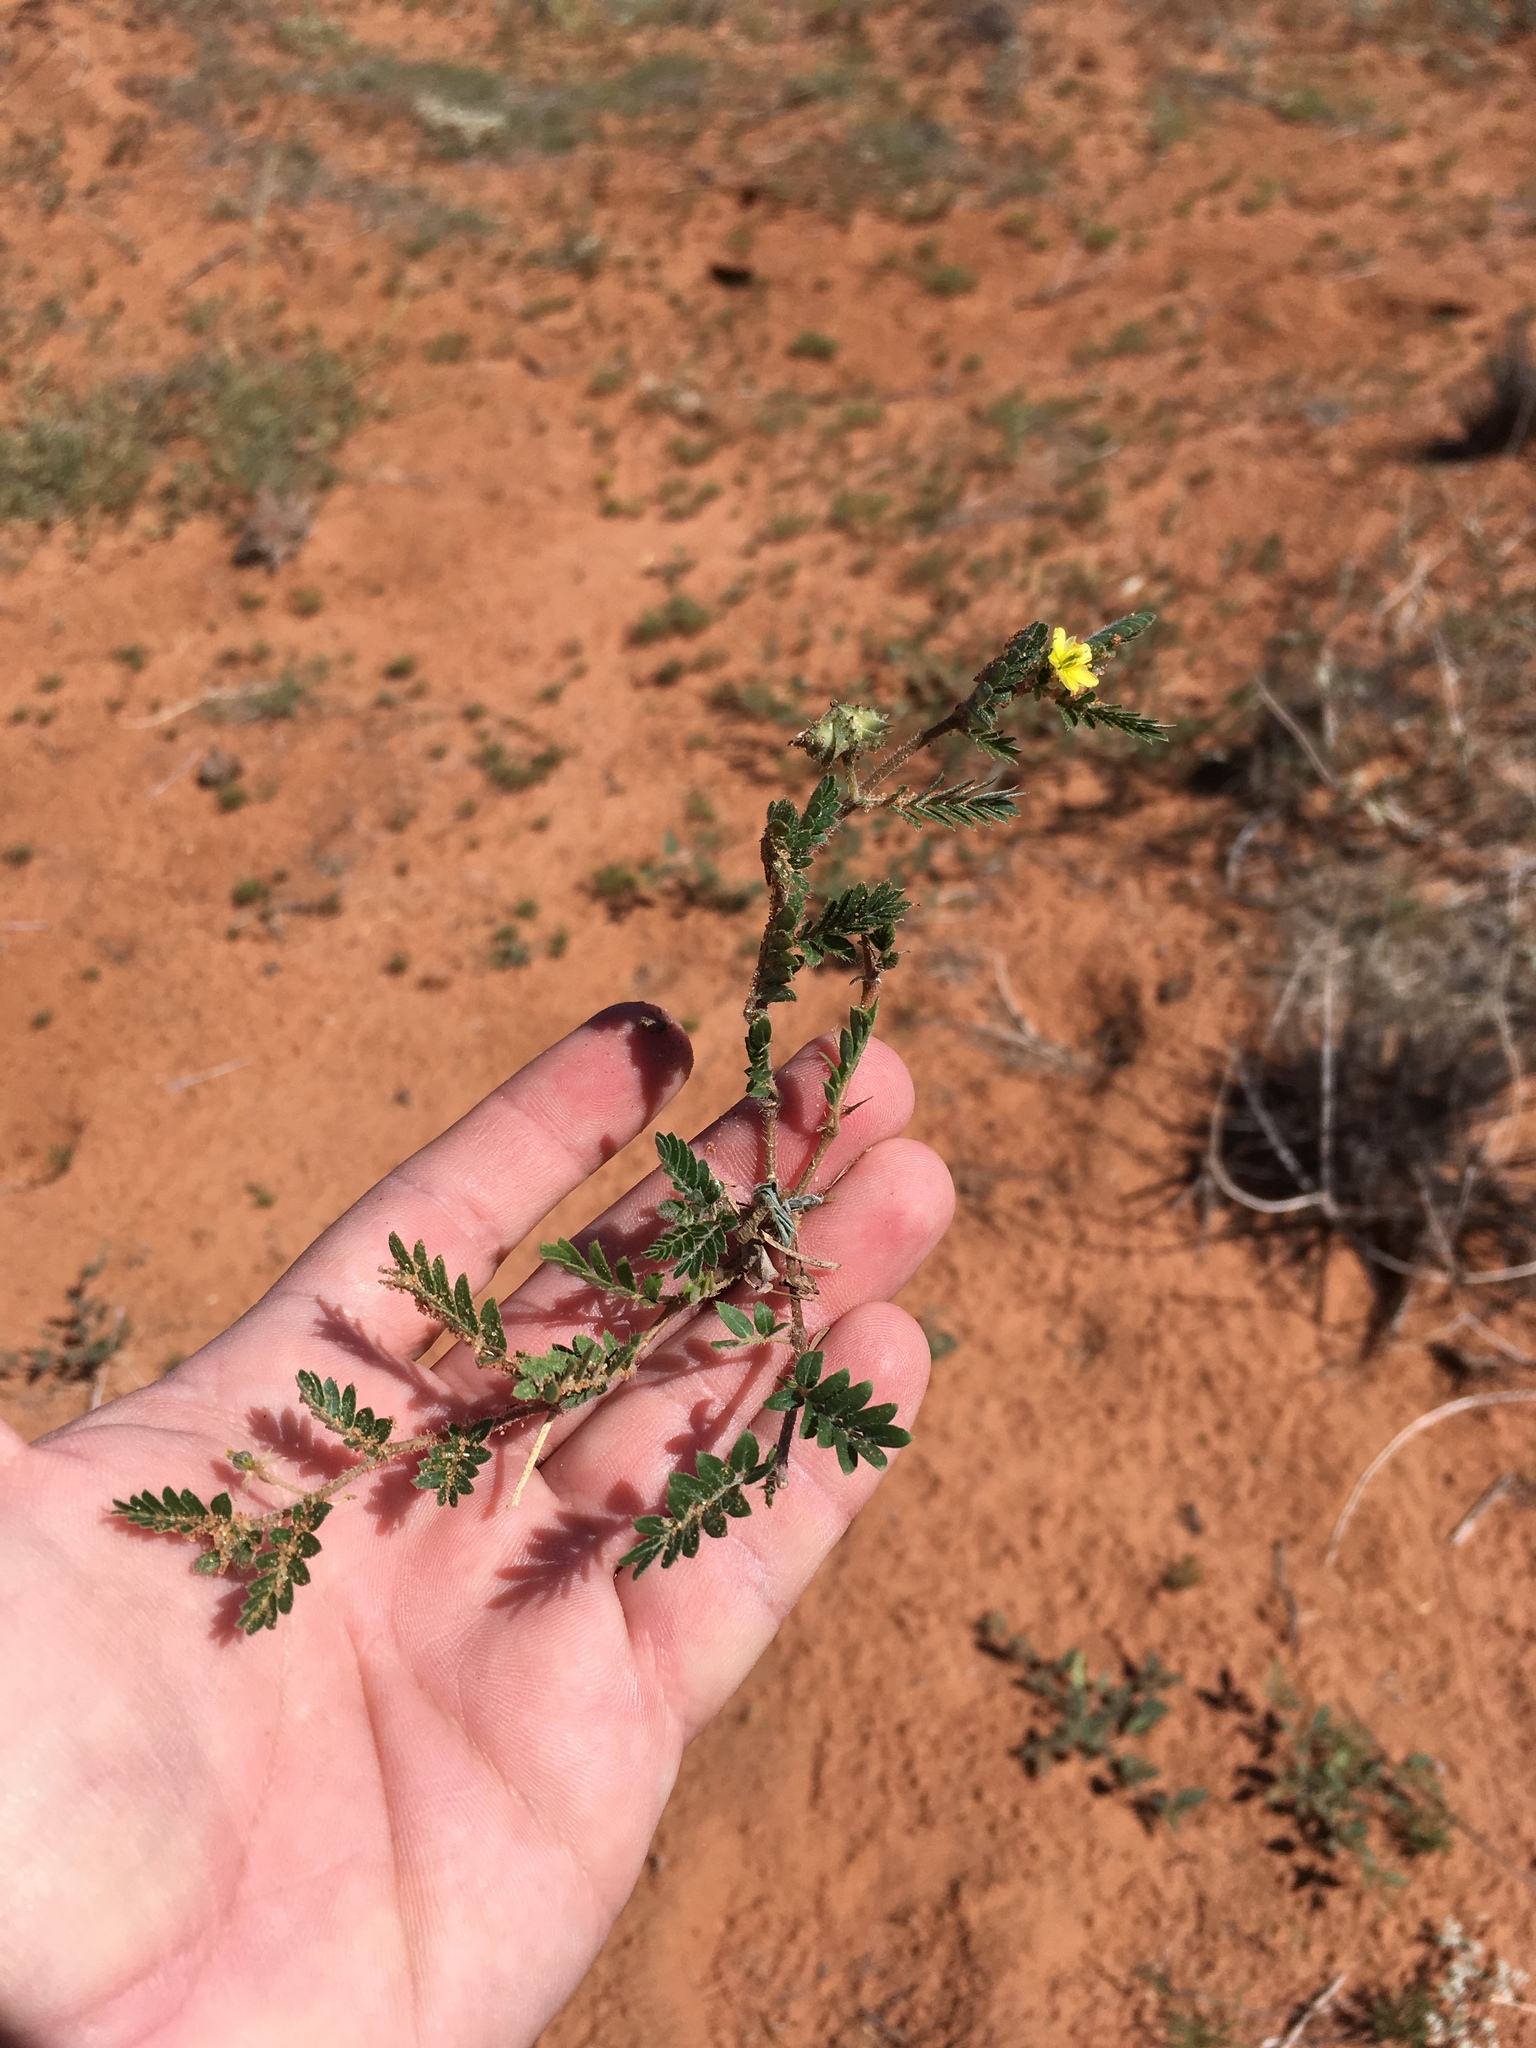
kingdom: Plantae
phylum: Tracheophyta
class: Magnoliopsida
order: Zygophyllales
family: Zygophyllaceae
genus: Tribulus
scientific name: Tribulus terrestris
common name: Puncturevine
